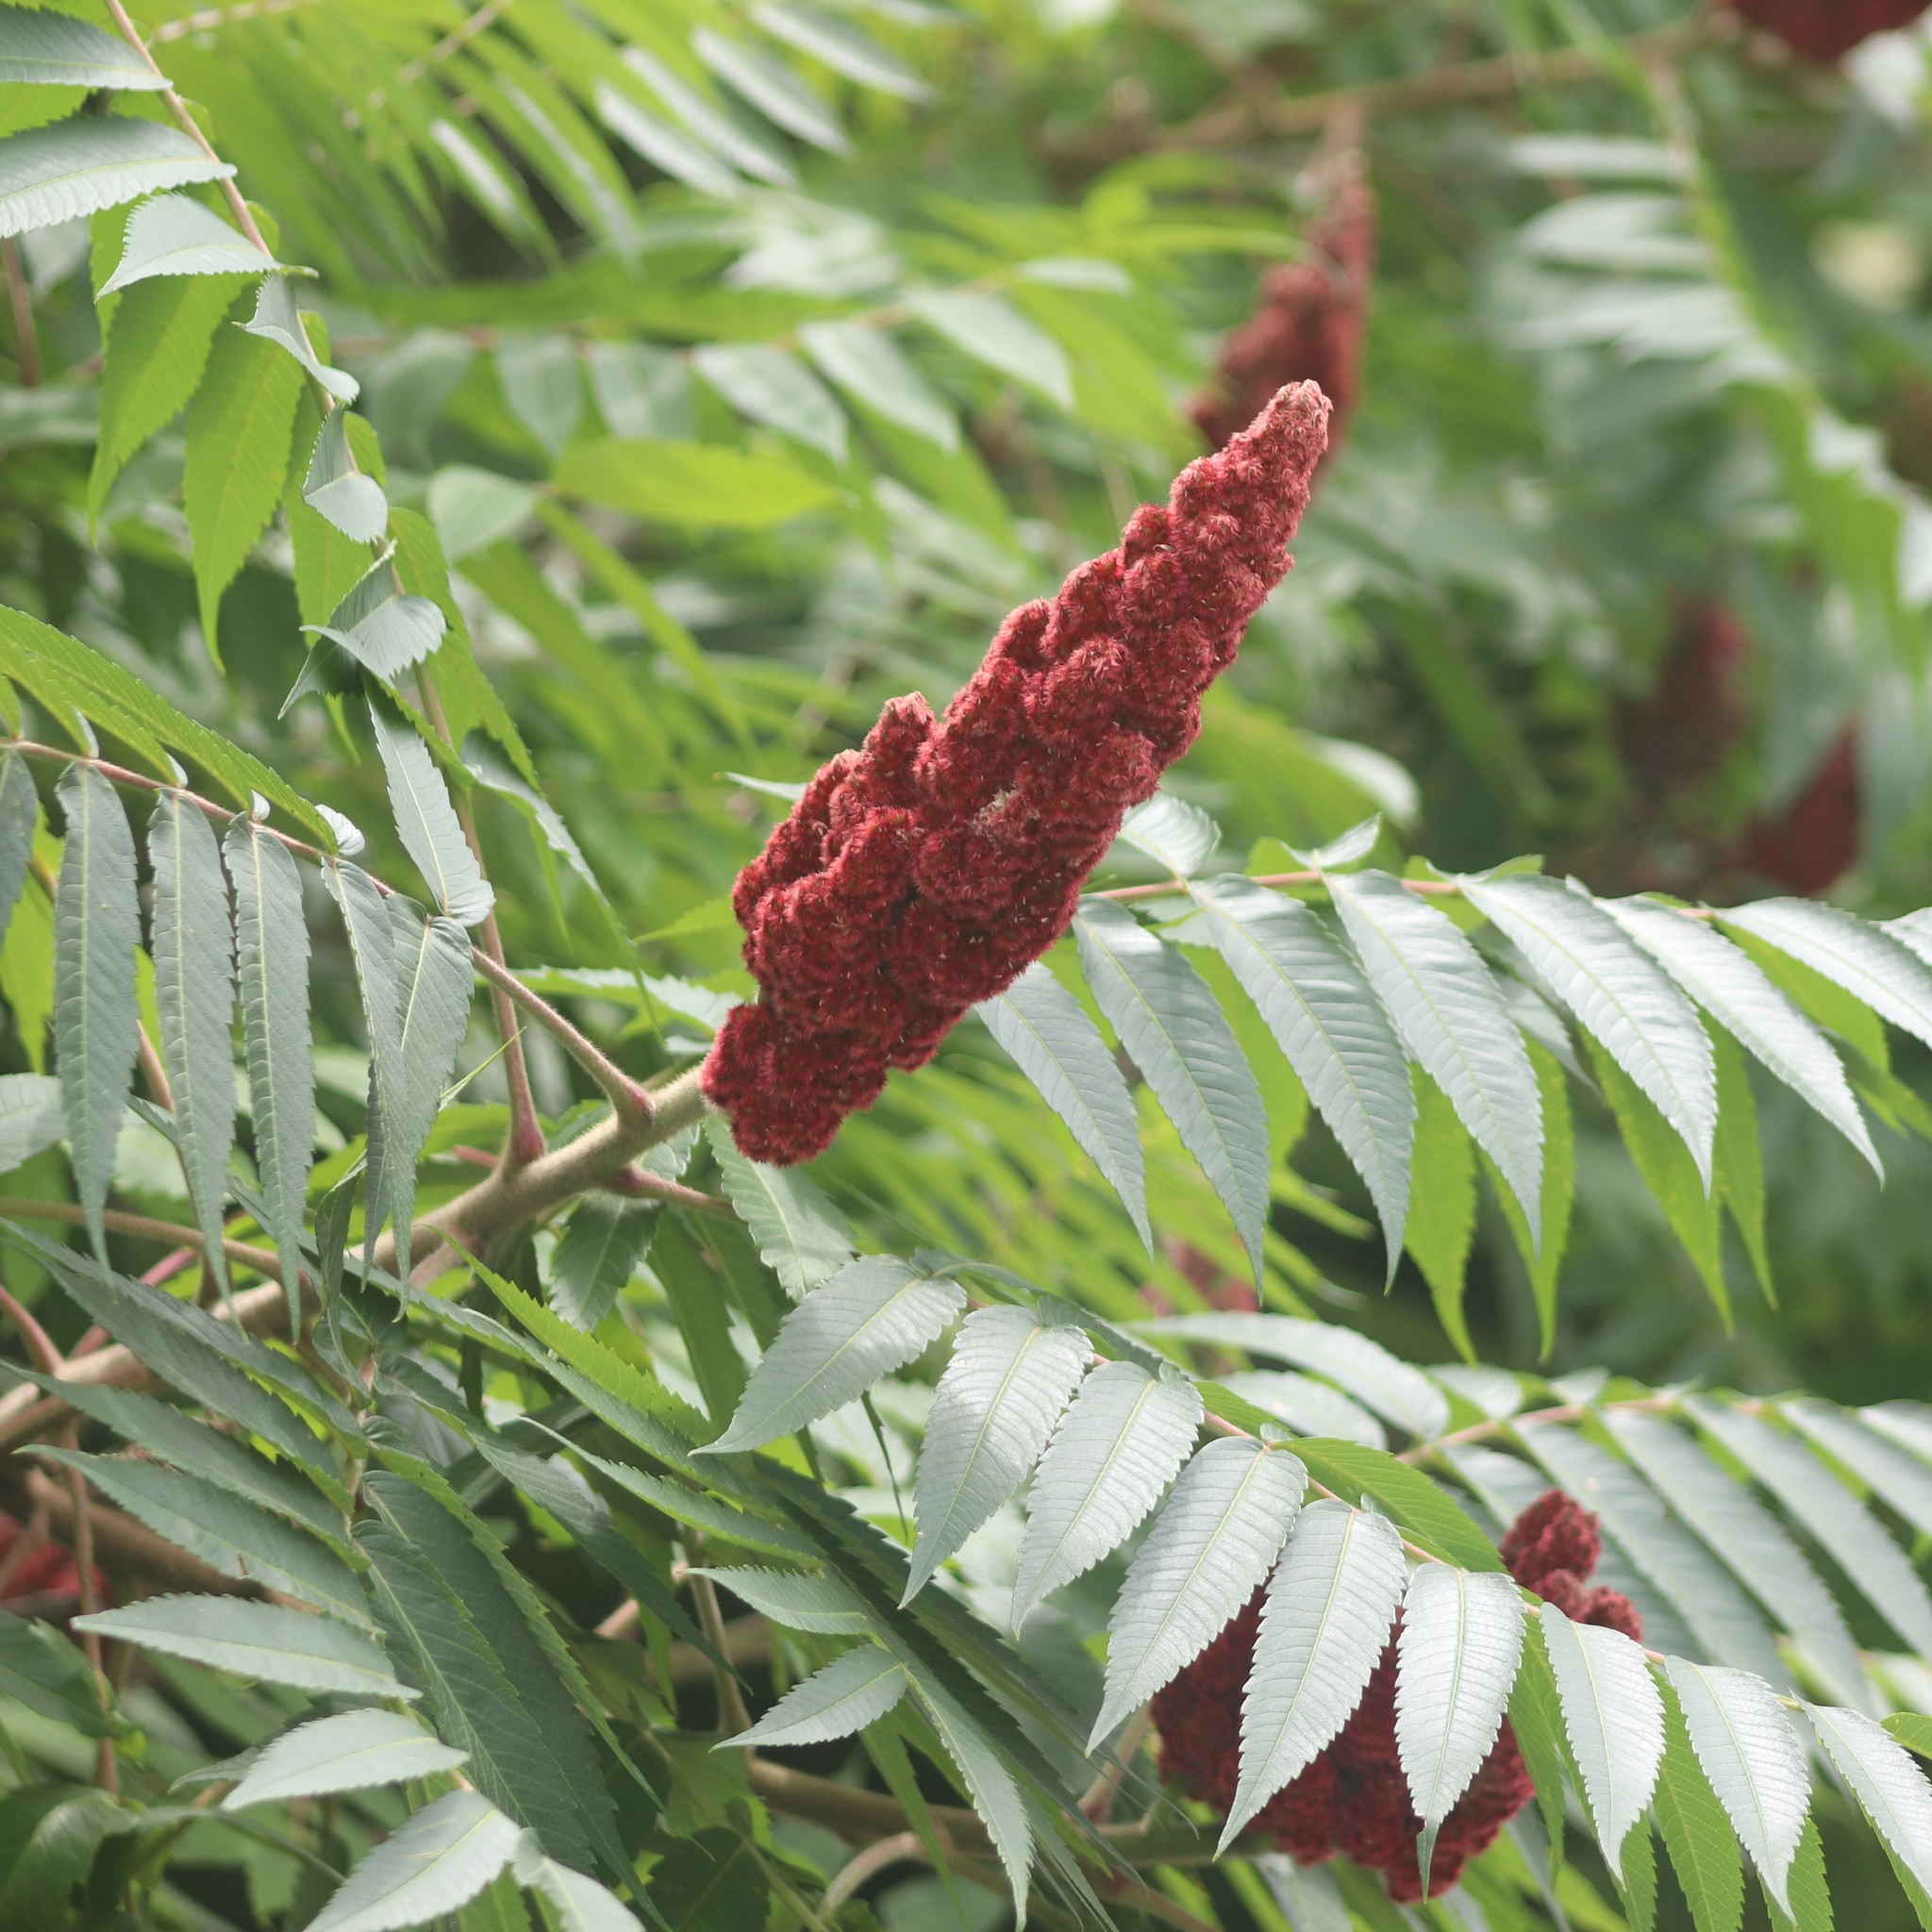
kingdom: Plantae
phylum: Tracheophyta
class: Magnoliopsida
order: Sapindales
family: Anacardiaceae
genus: Rhus
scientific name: Rhus typhina
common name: Staghorn sumac
